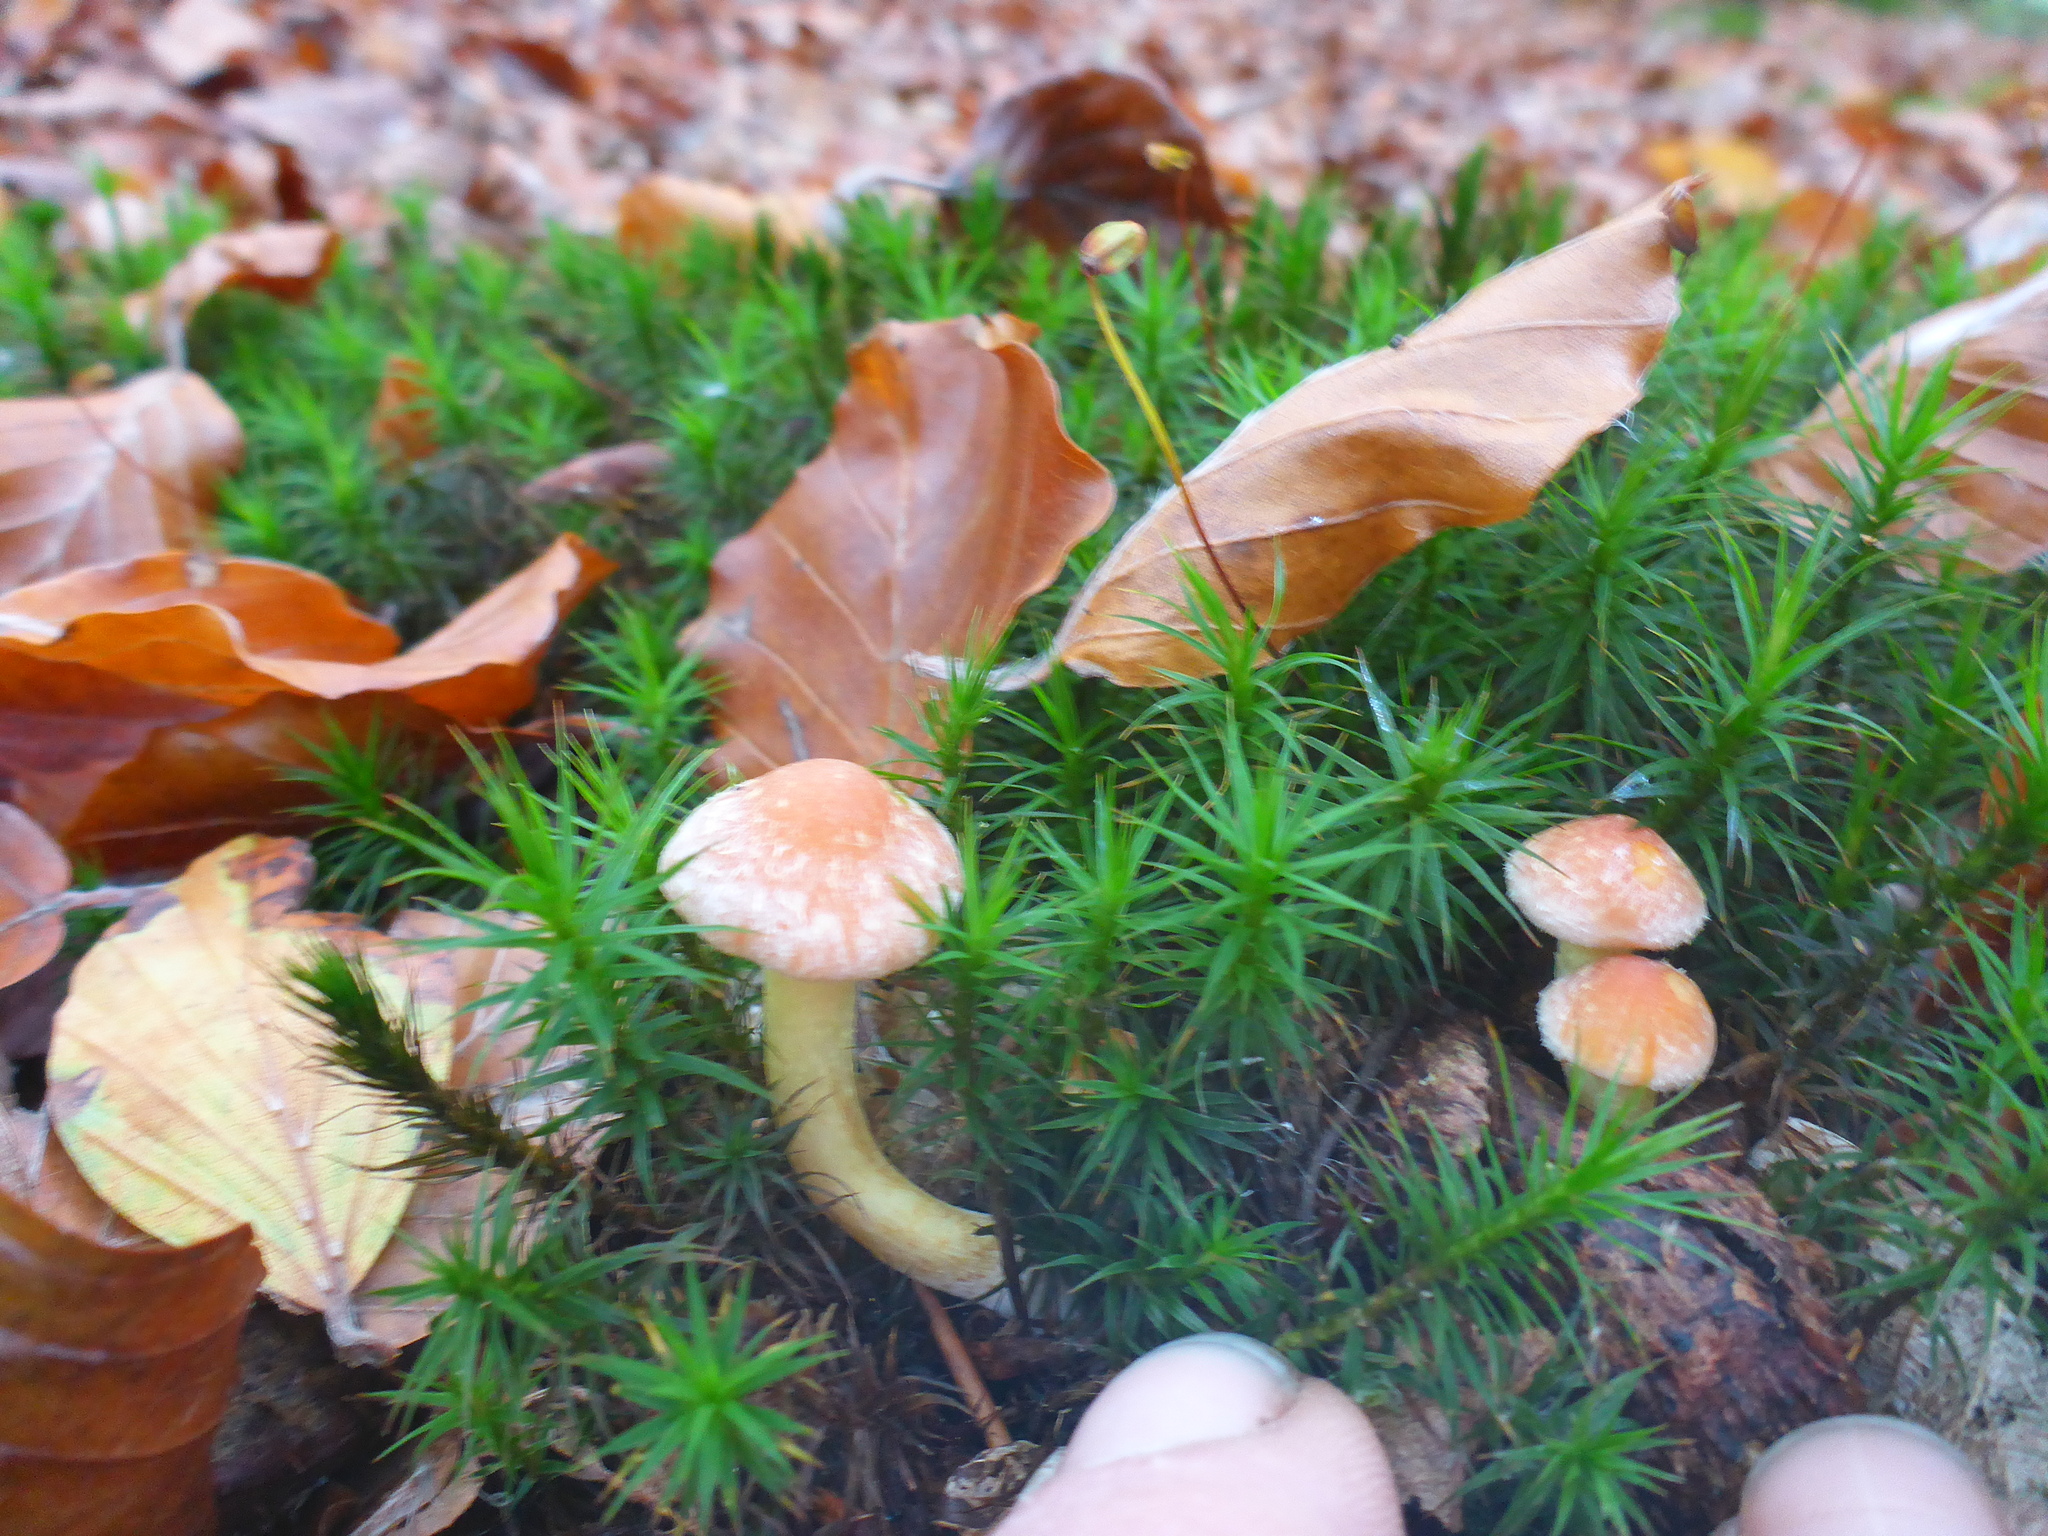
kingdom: Fungi
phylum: Basidiomycota
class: Agaricomycetes
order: Agaricales
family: Strophariaceae
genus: Hypholoma
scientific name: Hypholoma fasciculare
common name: Sulphur tuft
